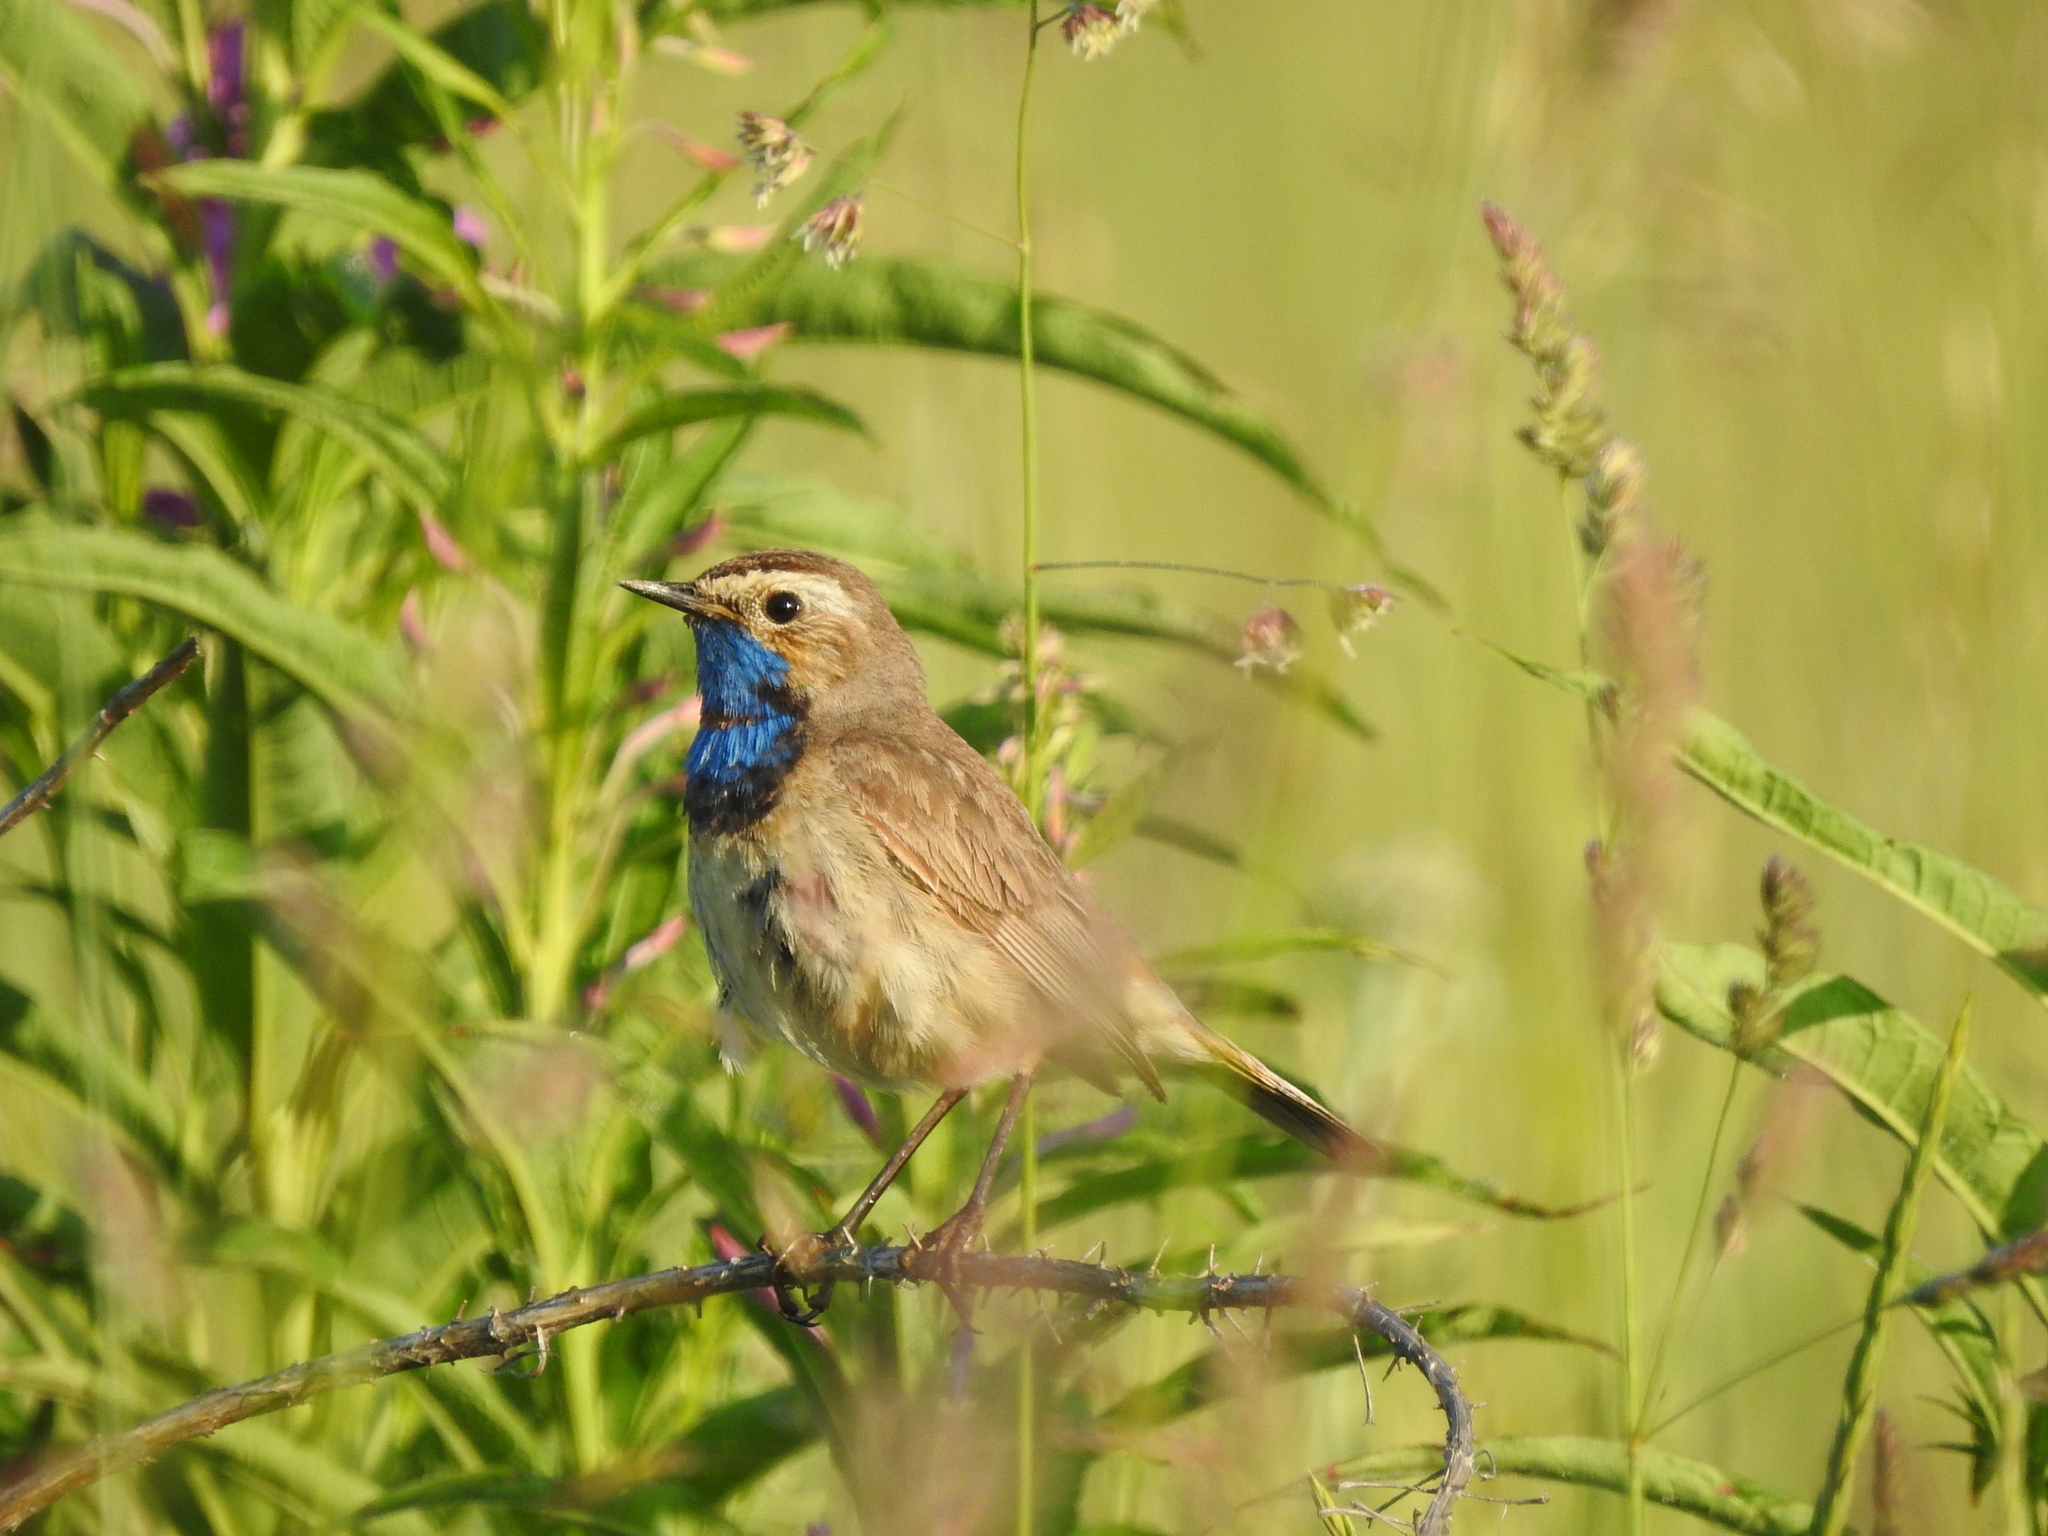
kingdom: Animalia
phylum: Chordata
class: Aves
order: Passeriformes
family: Muscicapidae
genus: Luscinia
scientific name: Luscinia svecica
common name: Bluethroat
